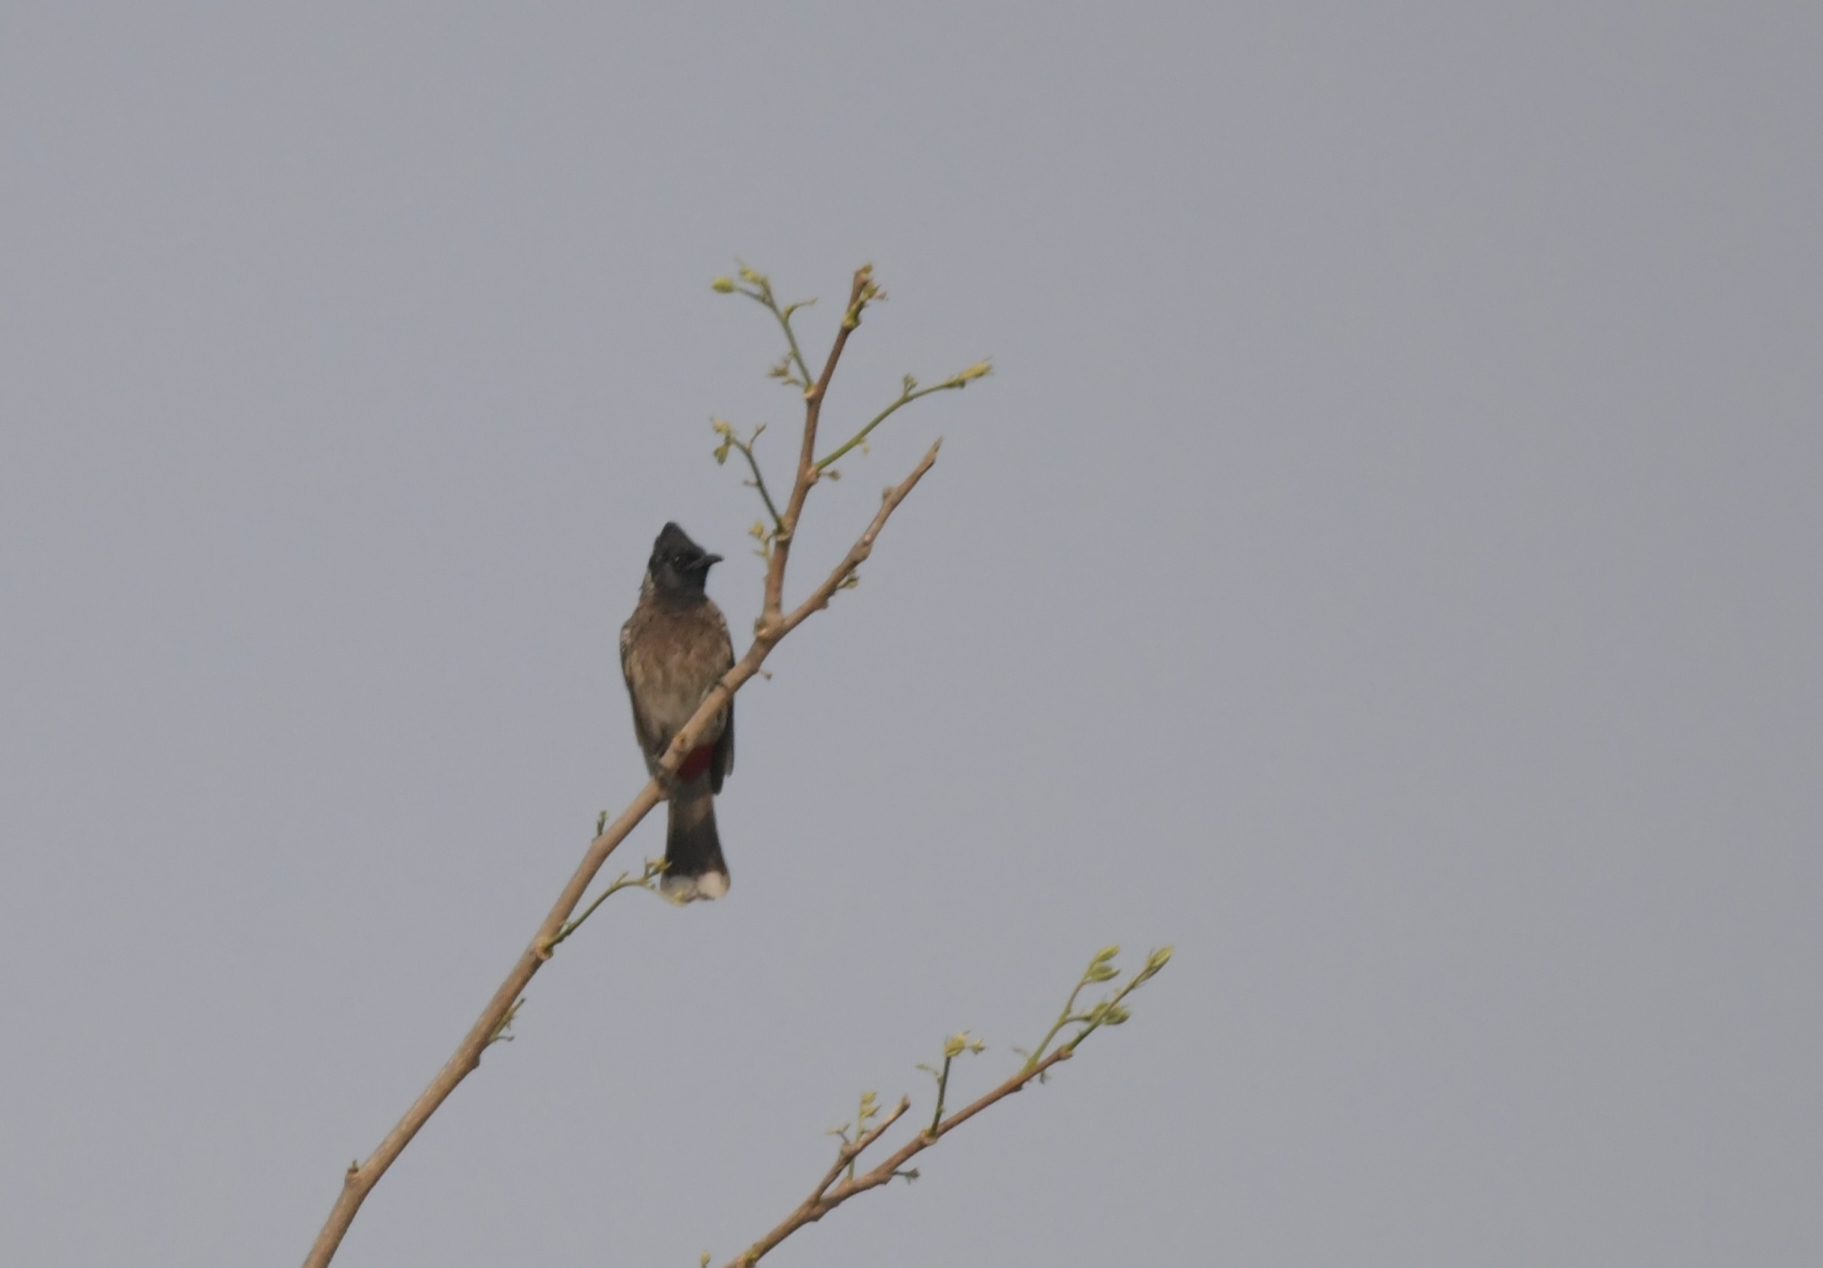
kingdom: Animalia
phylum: Chordata
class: Aves
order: Passeriformes
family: Pycnonotidae
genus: Pycnonotus
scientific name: Pycnonotus cafer
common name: Red-vented bulbul
